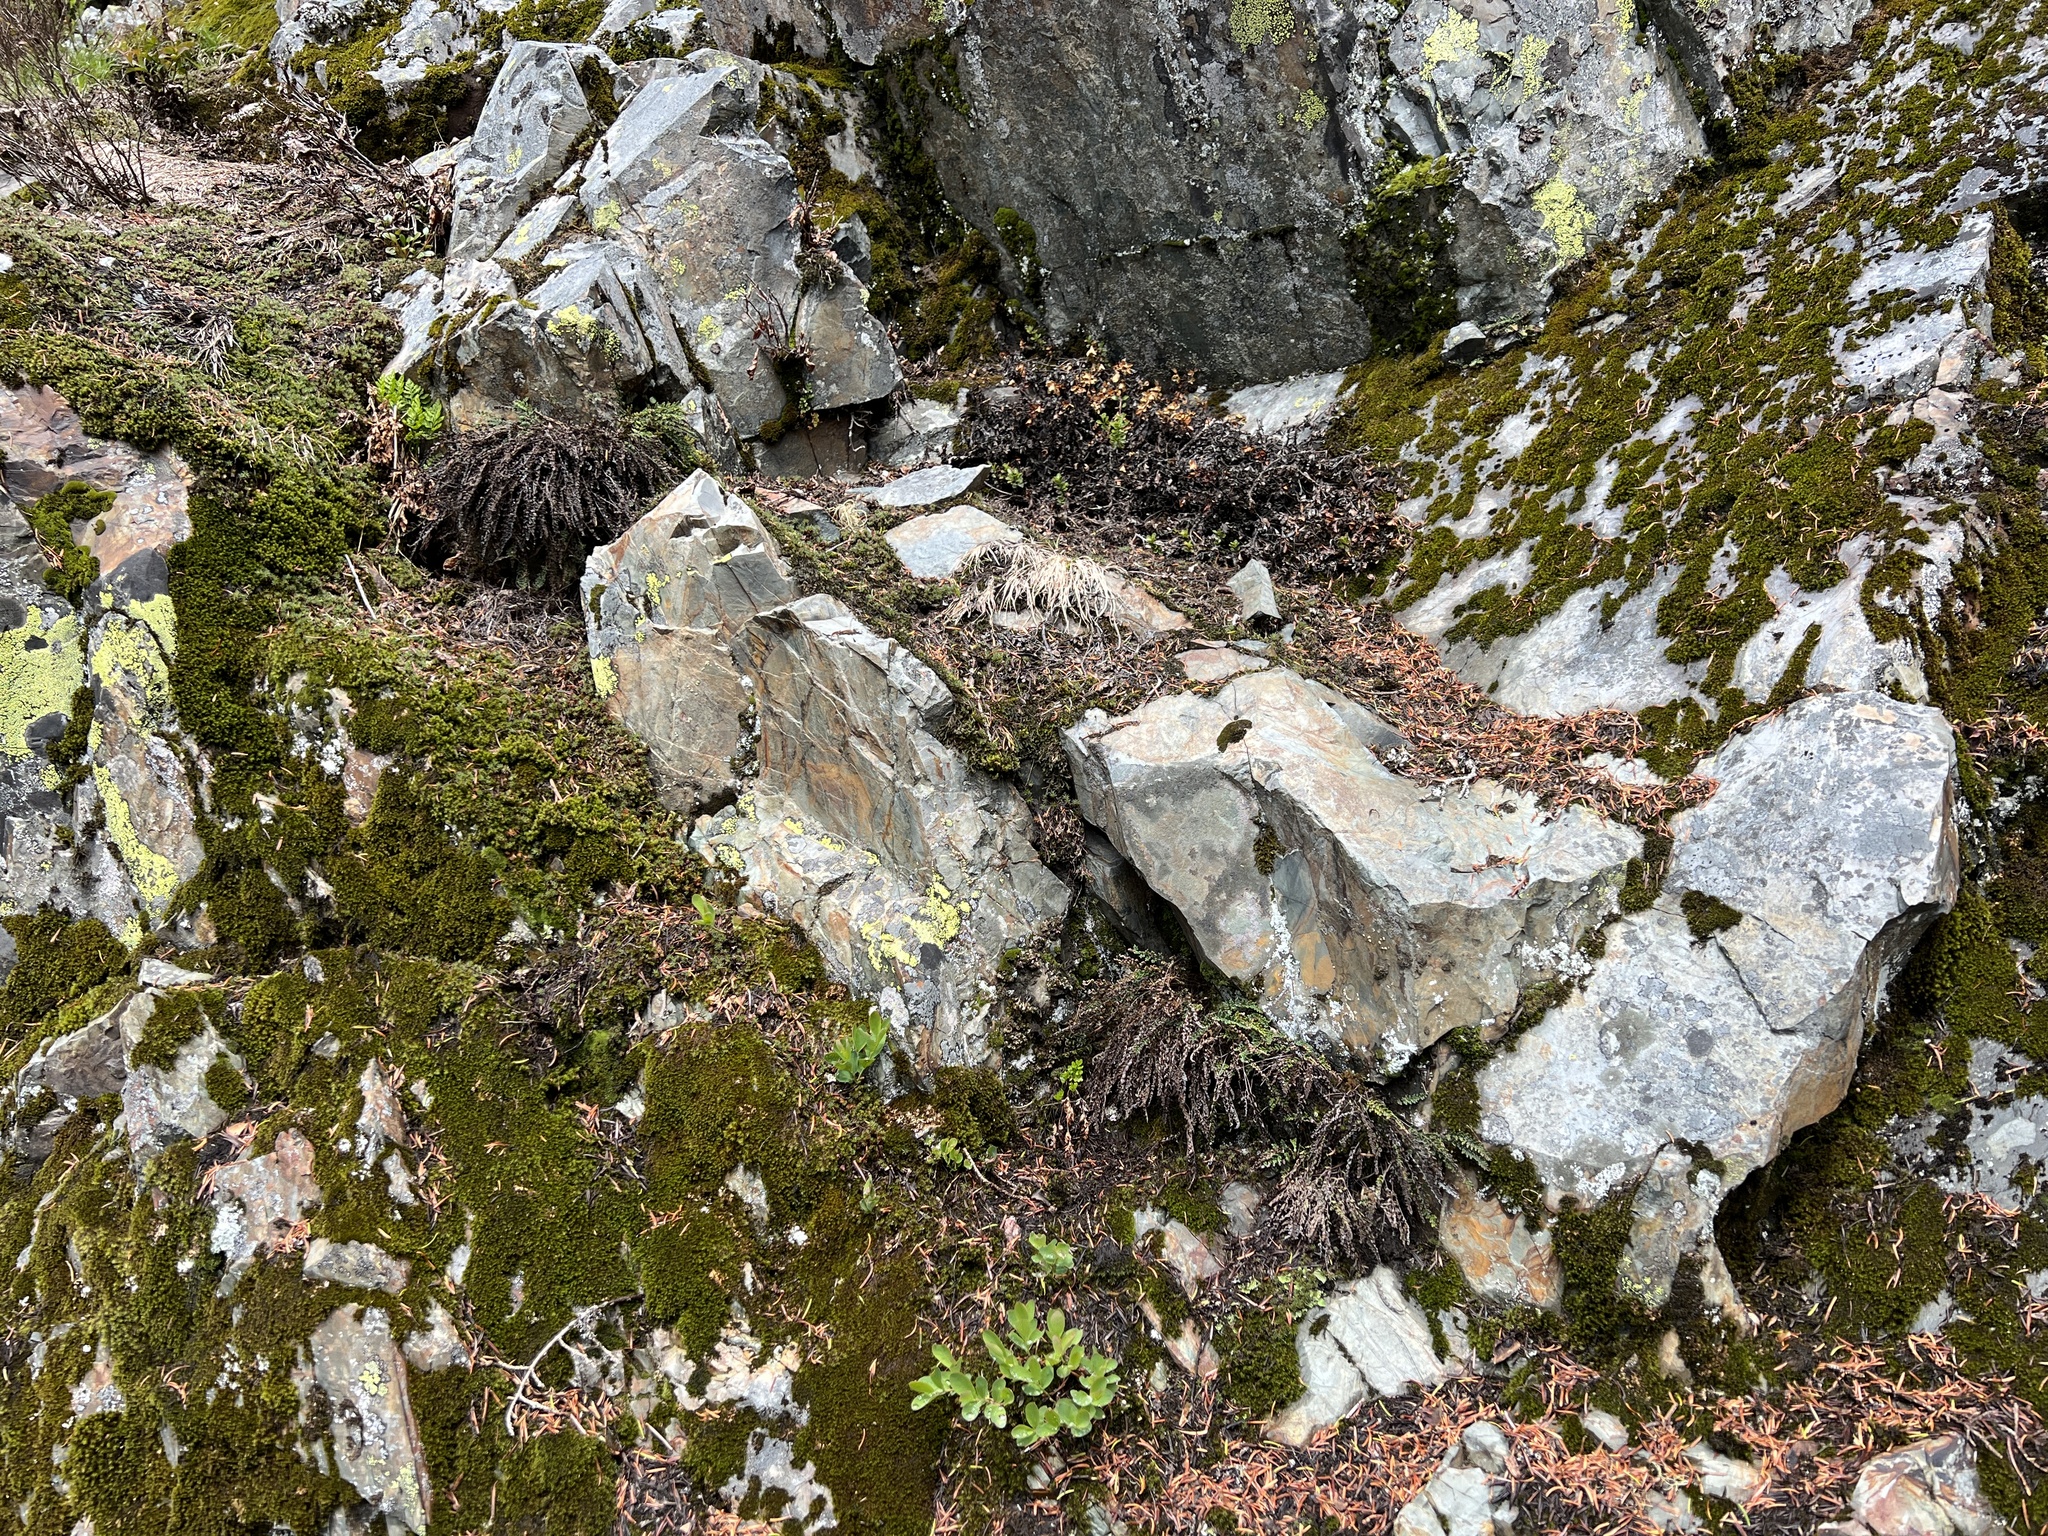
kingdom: Plantae
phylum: Tracheophyta
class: Polypodiopsida
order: Polypodiales
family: Pteridaceae
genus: Myriopteris
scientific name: Myriopteris gracillima
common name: Lace fern
